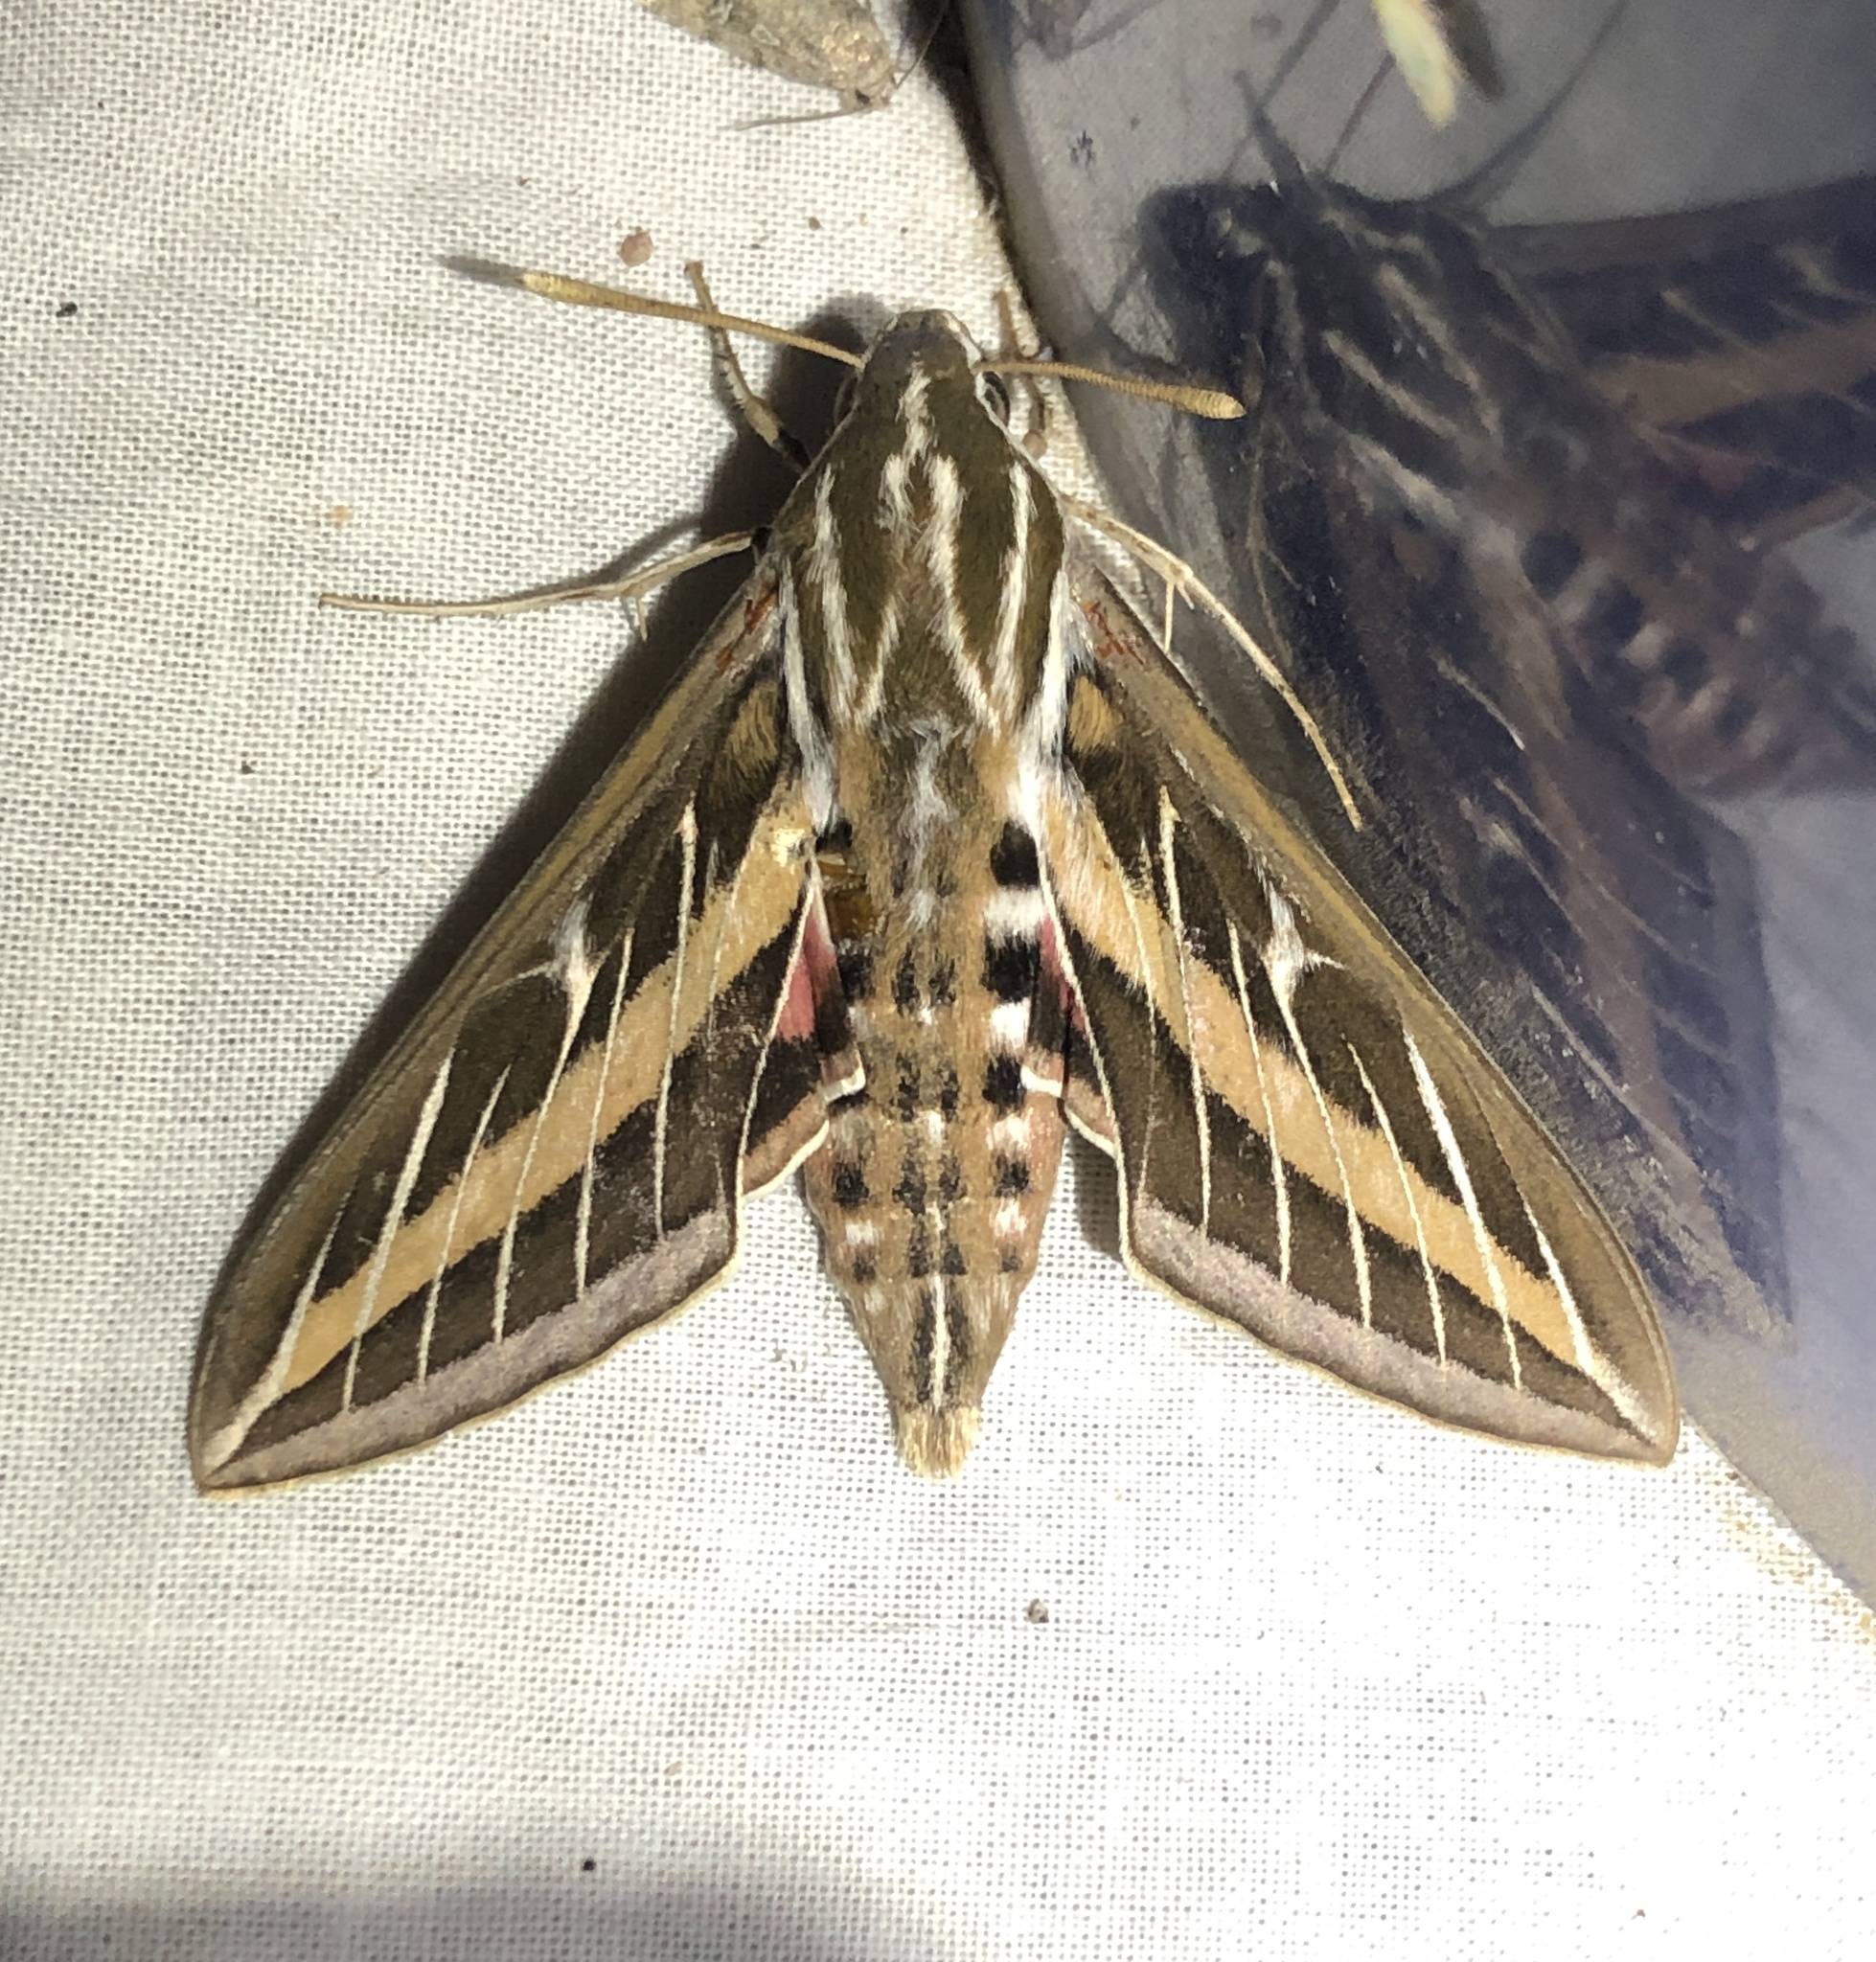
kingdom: Animalia
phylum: Arthropoda
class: Insecta
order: Lepidoptera
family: Sphingidae
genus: Hyles
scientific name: Hyles lineata
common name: White-lined sphinx
